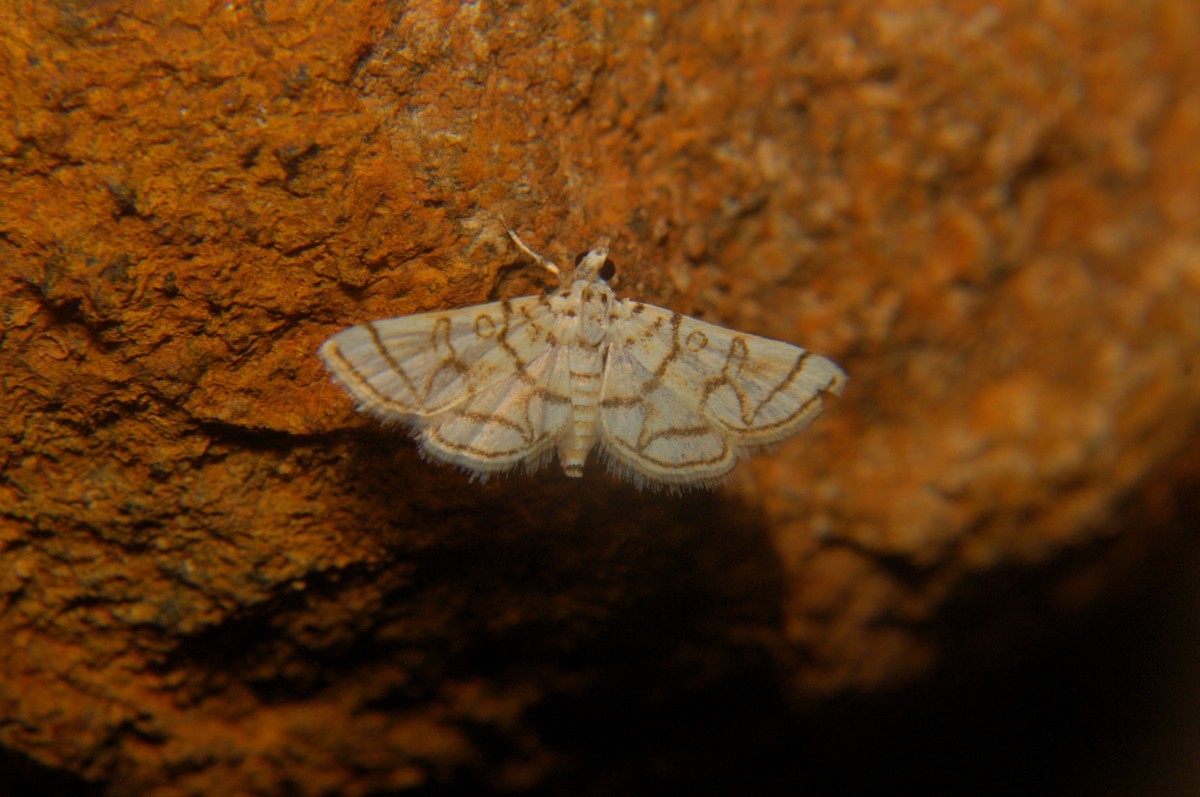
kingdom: Animalia
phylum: Arthropoda
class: Insecta
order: Lepidoptera
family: Crambidae
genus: Elophila
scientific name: Elophila
